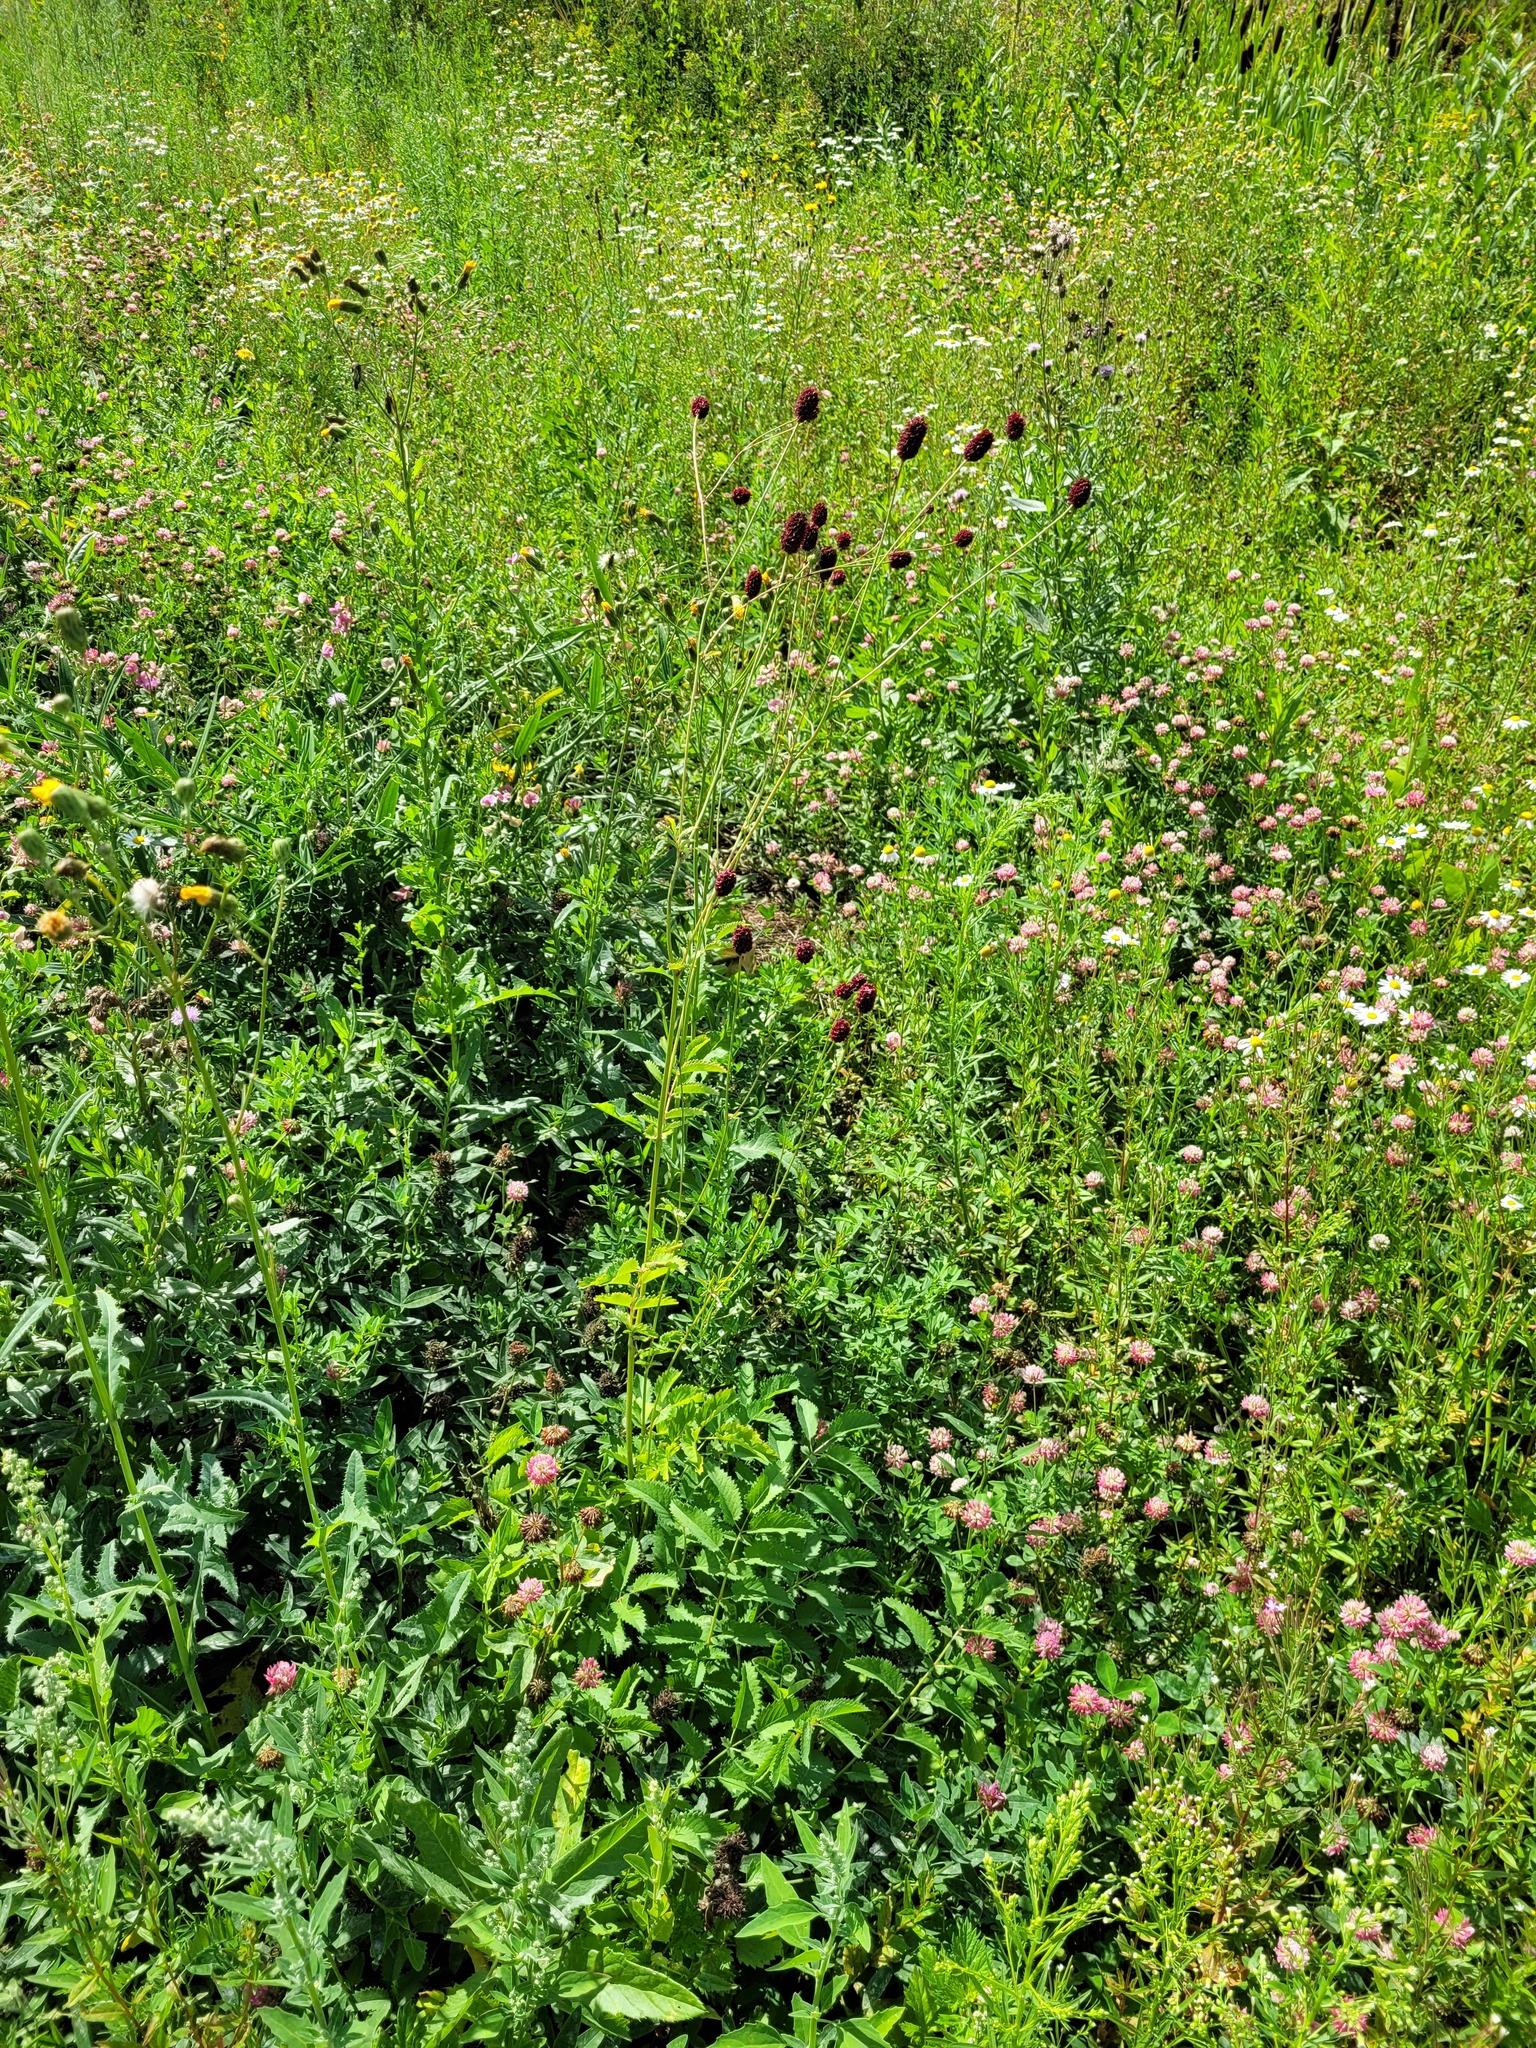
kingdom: Plantae
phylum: Tracheophyta
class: Magnoliopsida
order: Rosales
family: Rosaceae
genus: Sanguisorba
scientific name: Sanguisorba officinalis
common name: Great burnet
